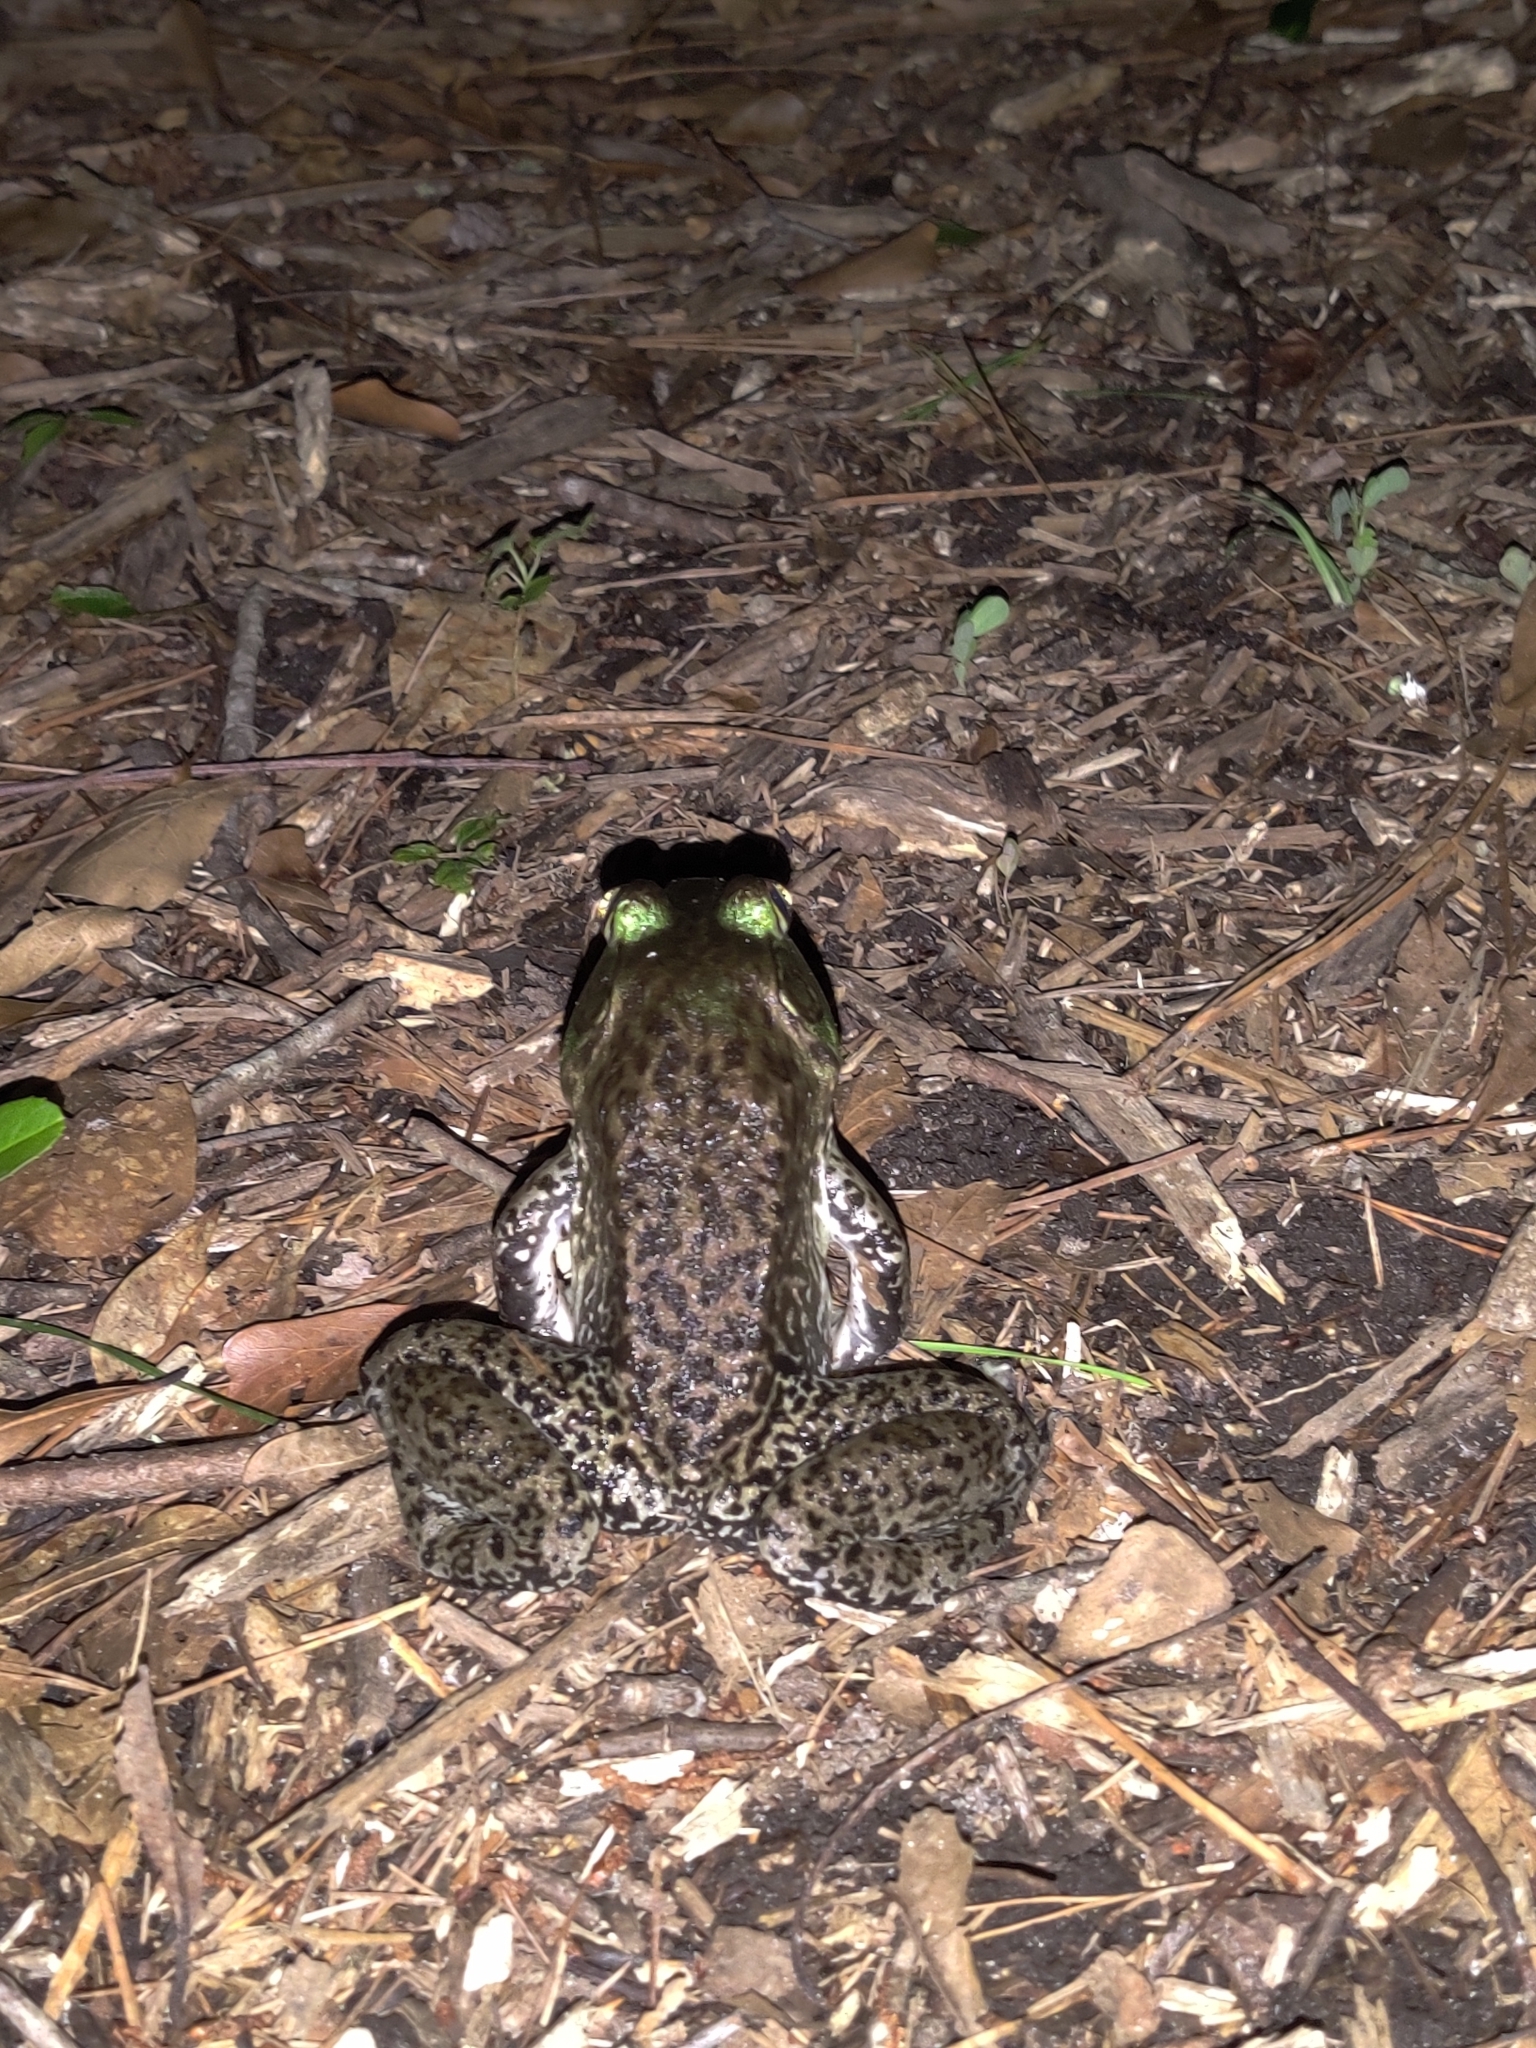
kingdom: Animalia
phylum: Chordata
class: Amphibia
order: Anura
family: Ranidae
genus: Lithobates
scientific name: Lithobates catesbeianus
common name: American bullfrog
